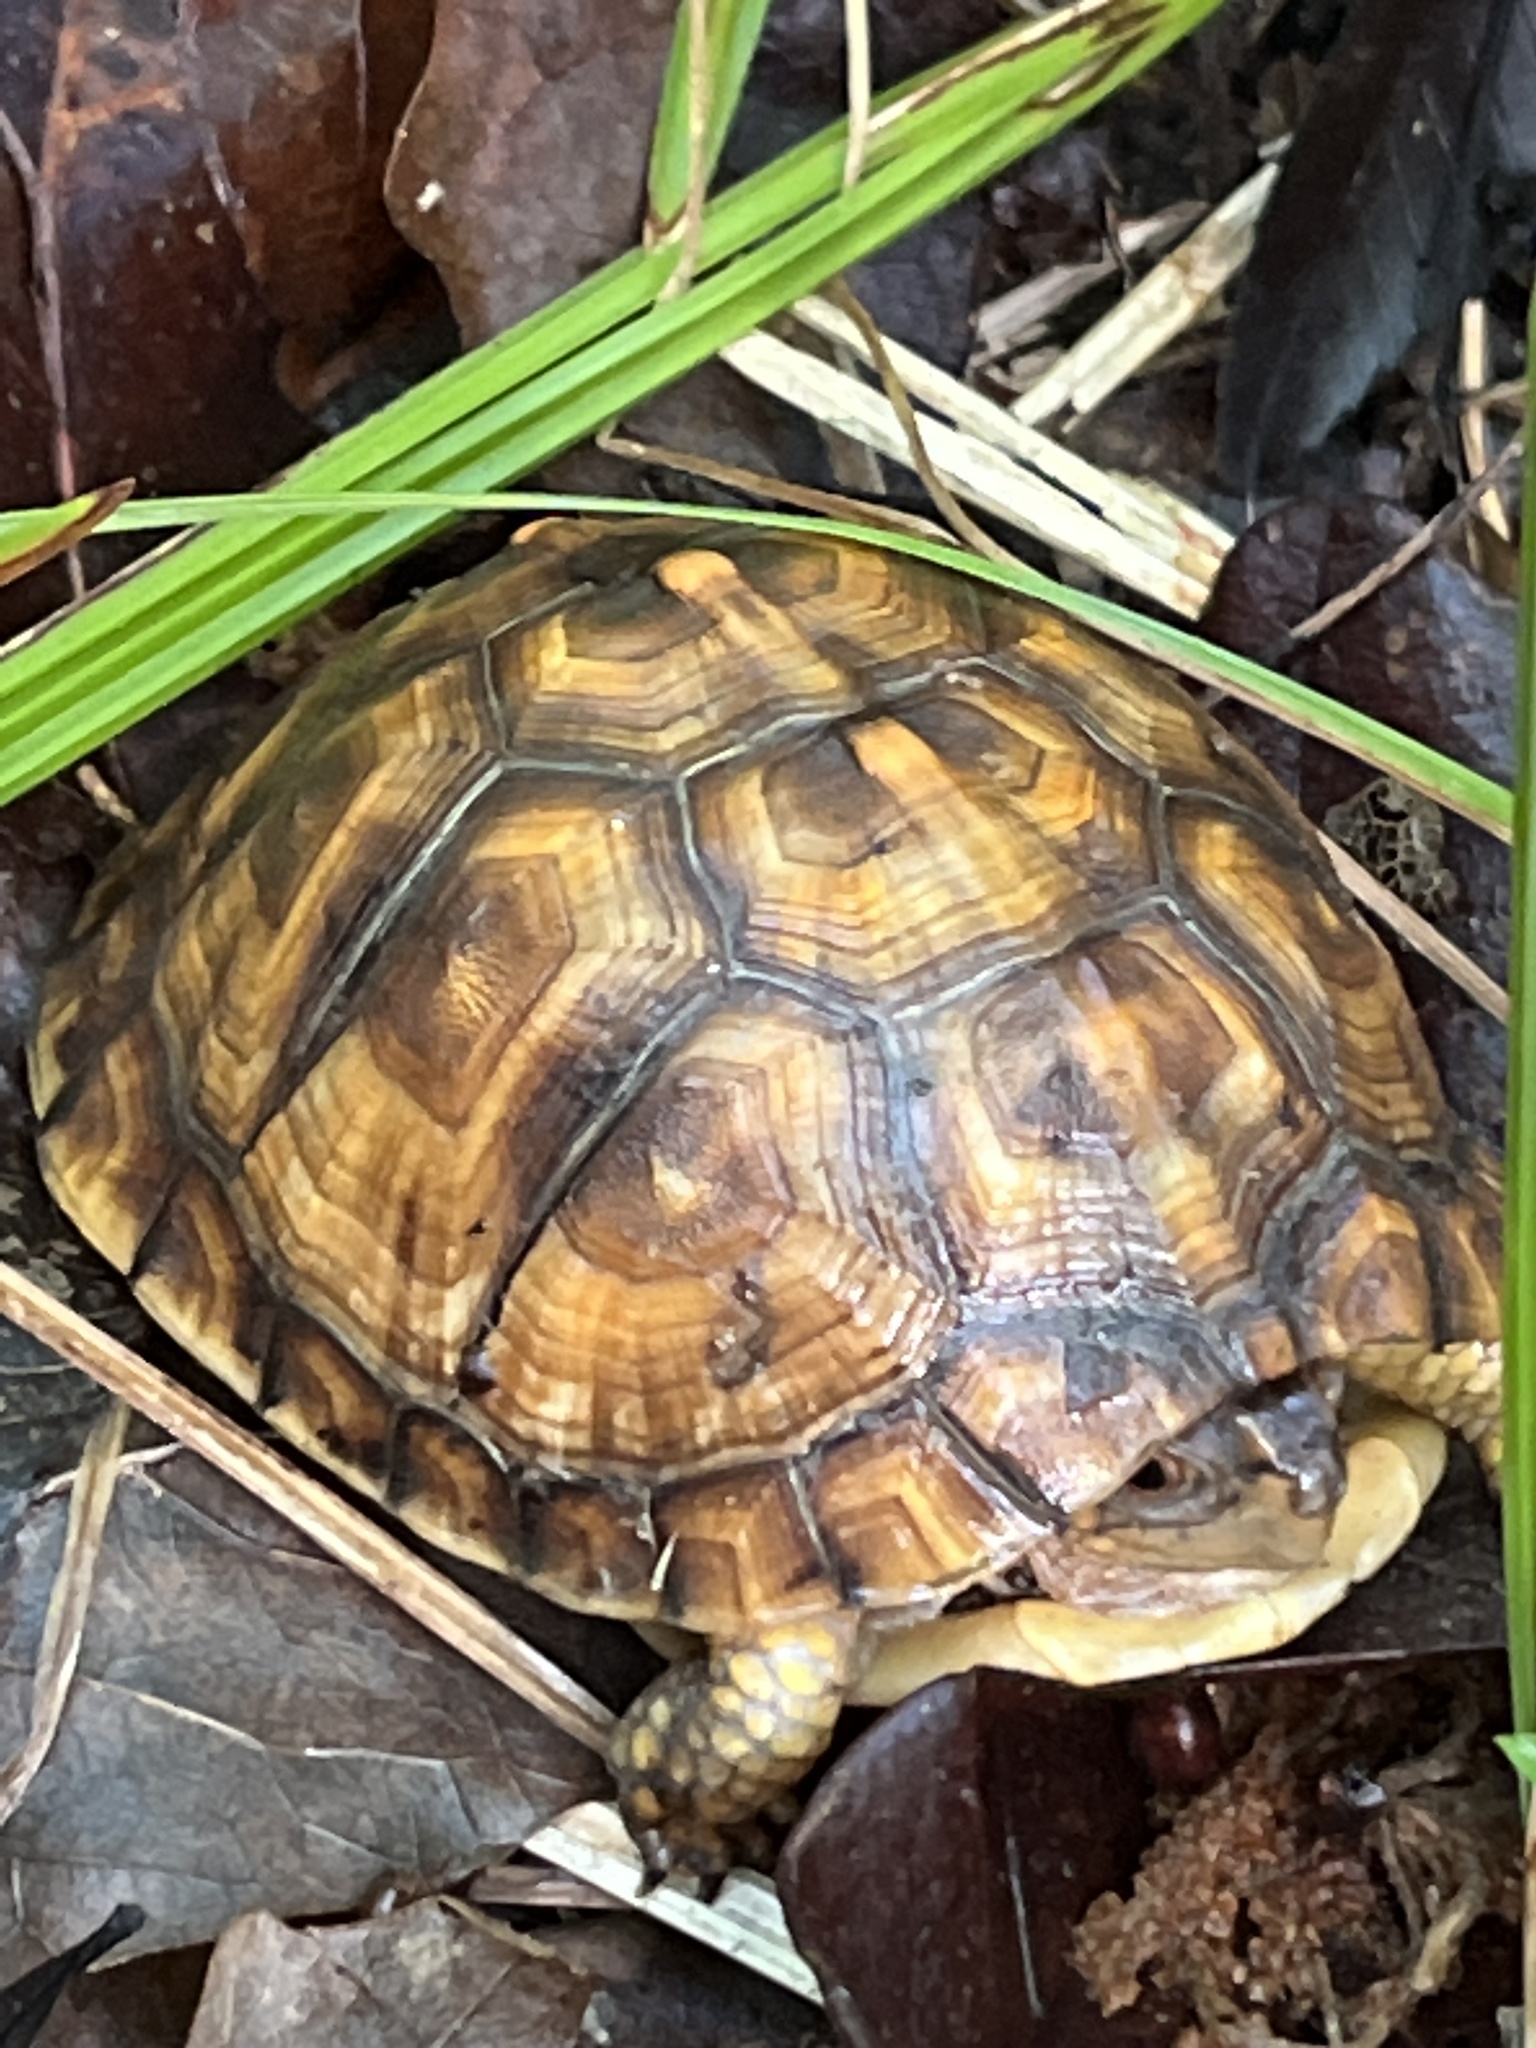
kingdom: Animalia
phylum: Chordata
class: Testudines
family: Emydidae
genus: Terrapene
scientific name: Terrapene carolina
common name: Common box turtle
